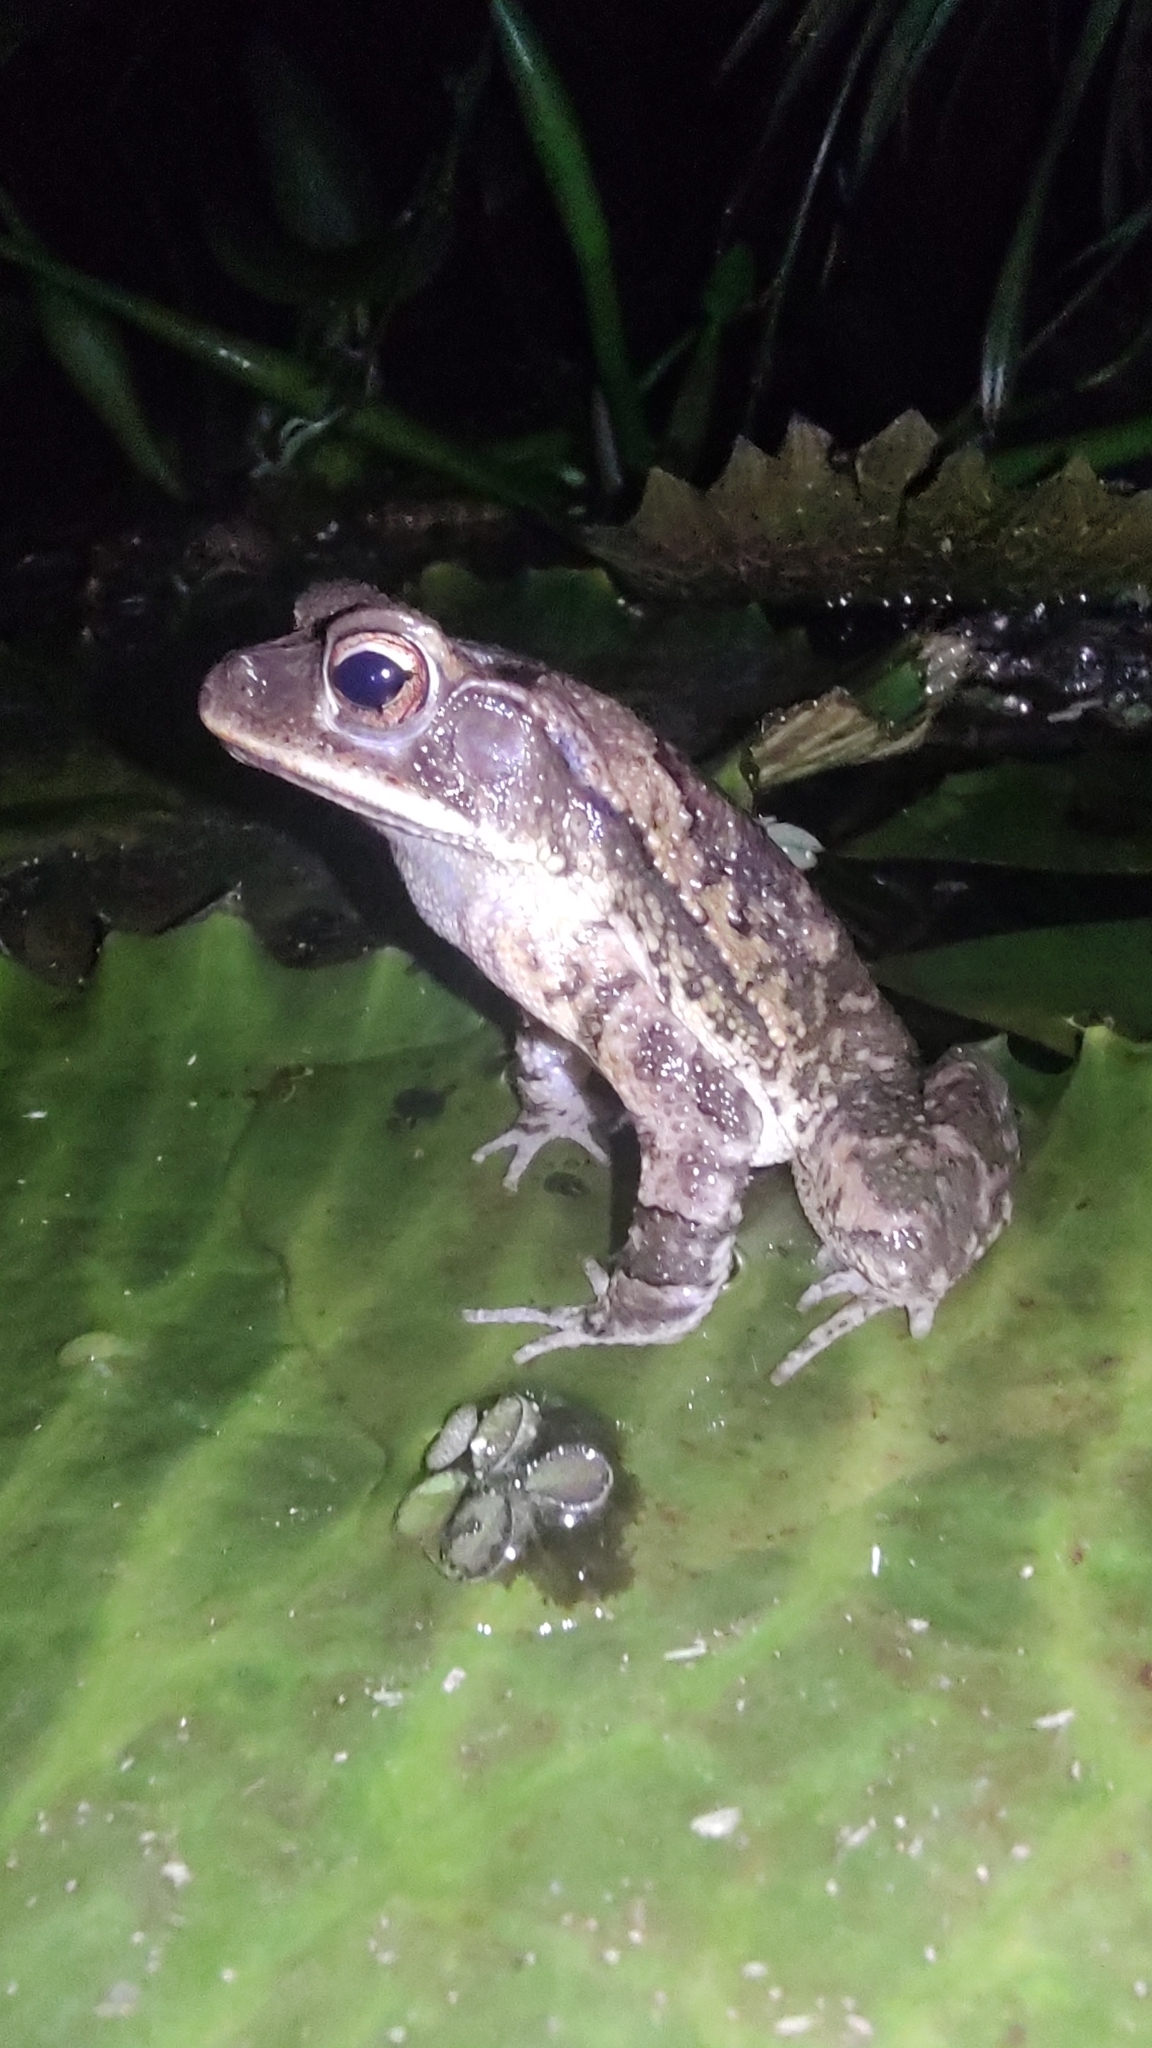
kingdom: Animalia
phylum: Chordata
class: Amphibia
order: Anura
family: Bufonidae
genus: Incilius
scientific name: Incilius valliceps
